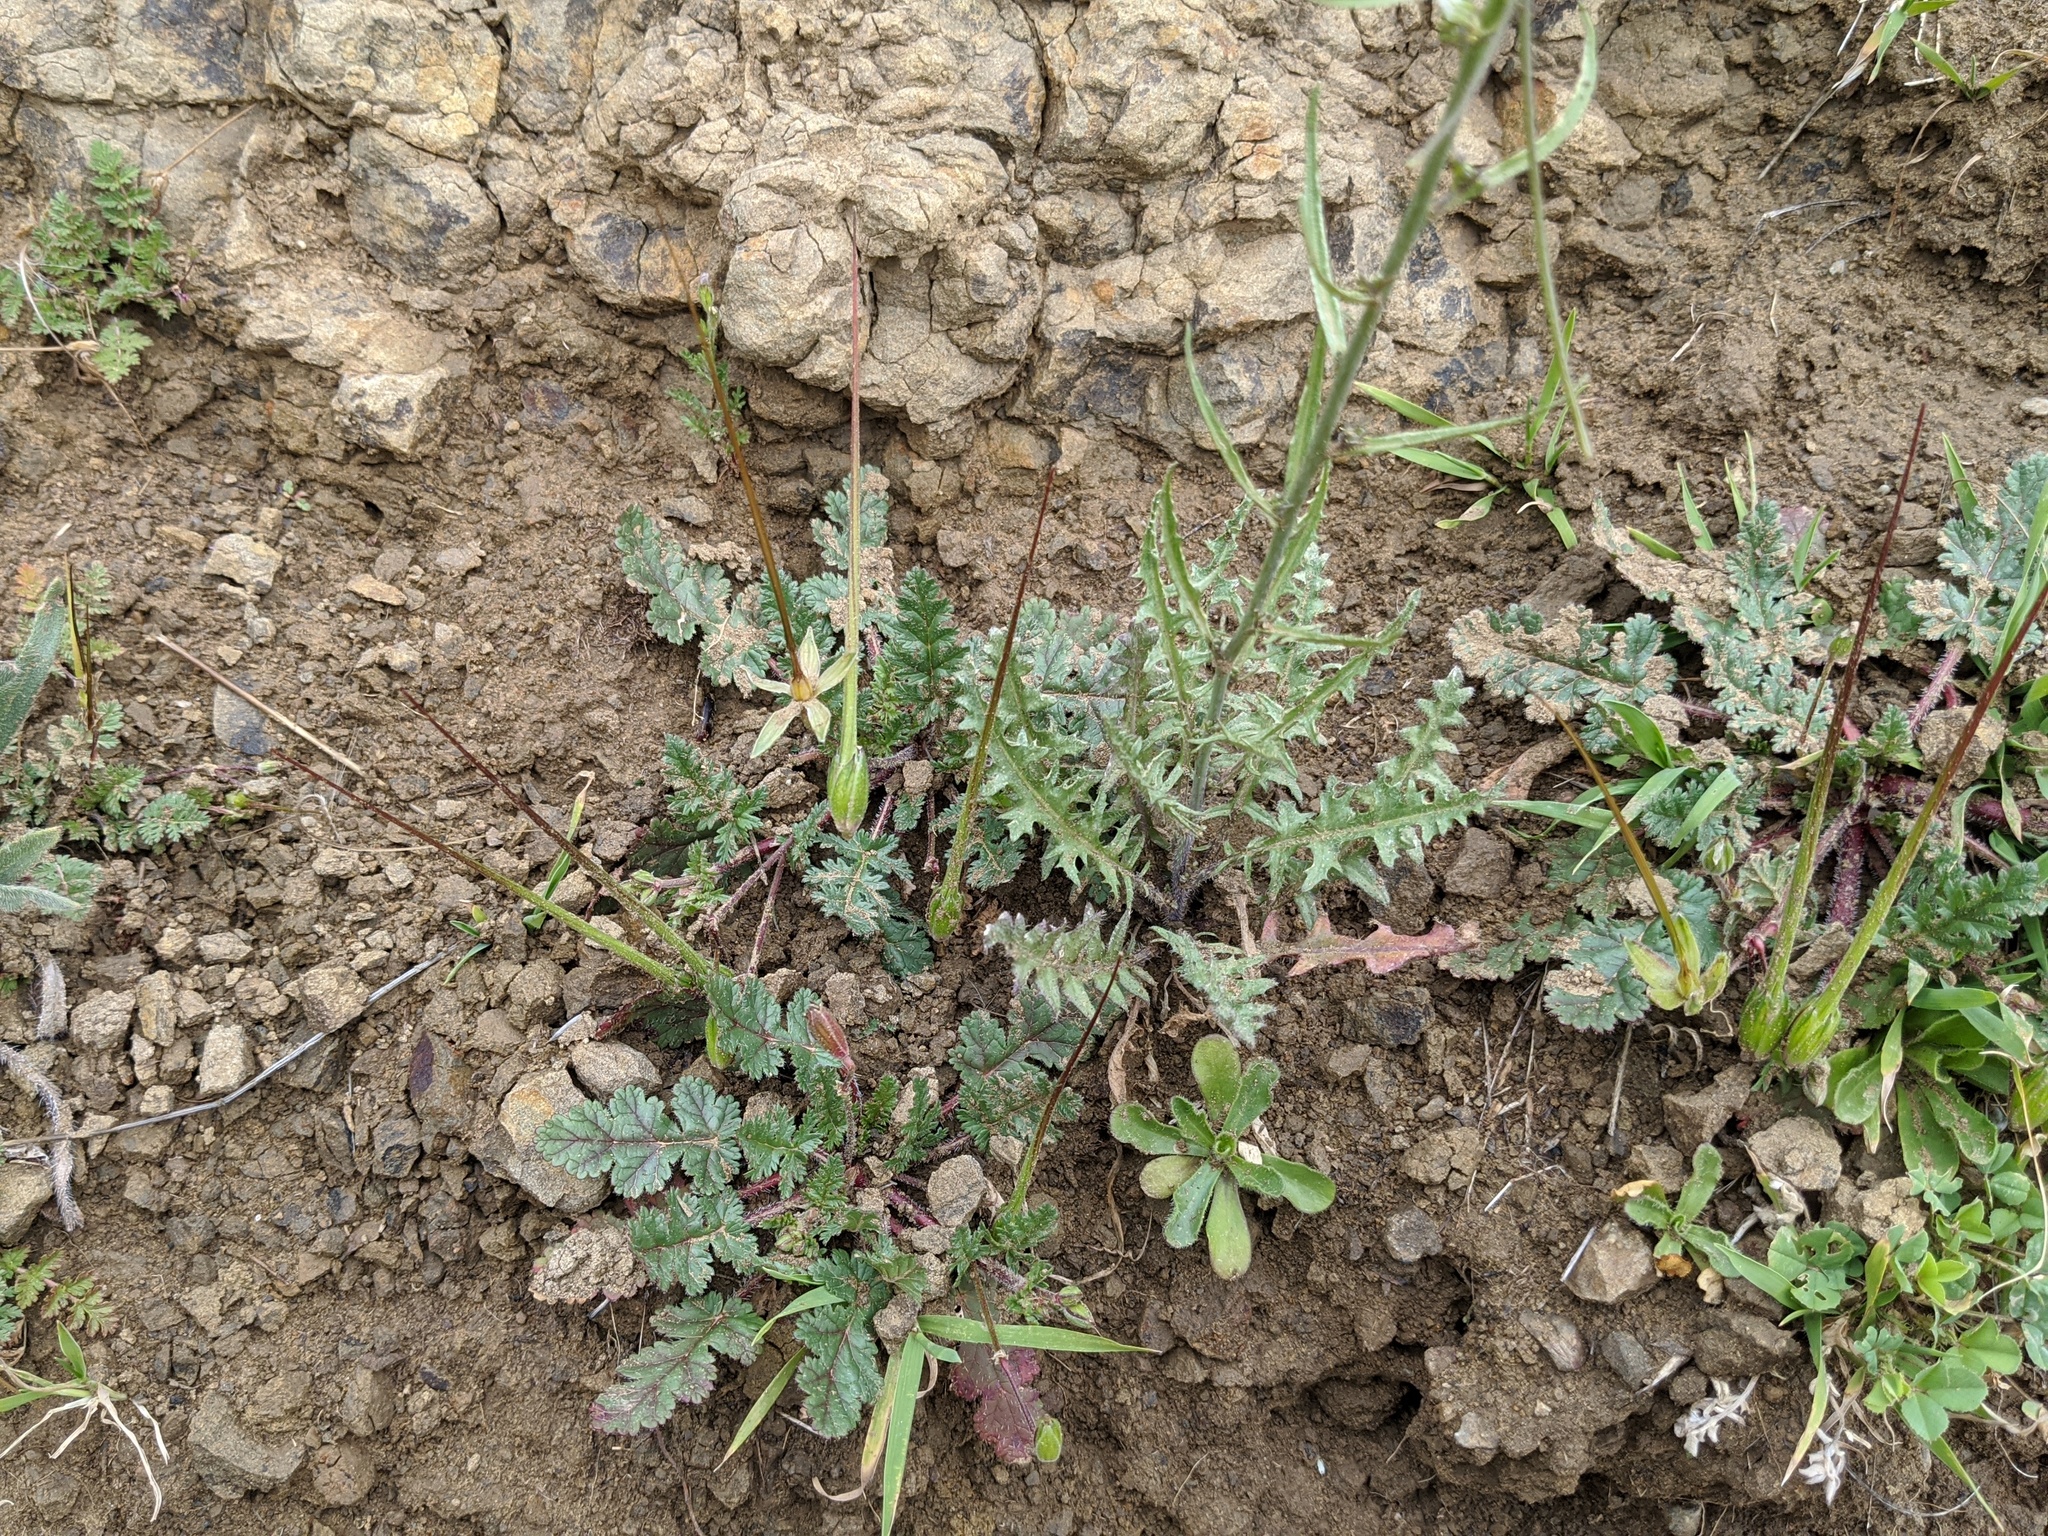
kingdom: Plantae
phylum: Tracheophyta
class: Magnoliopsida
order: Brassicales
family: Brassicaceae
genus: Streptanthus
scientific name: Streptanthus lasiophyllus
